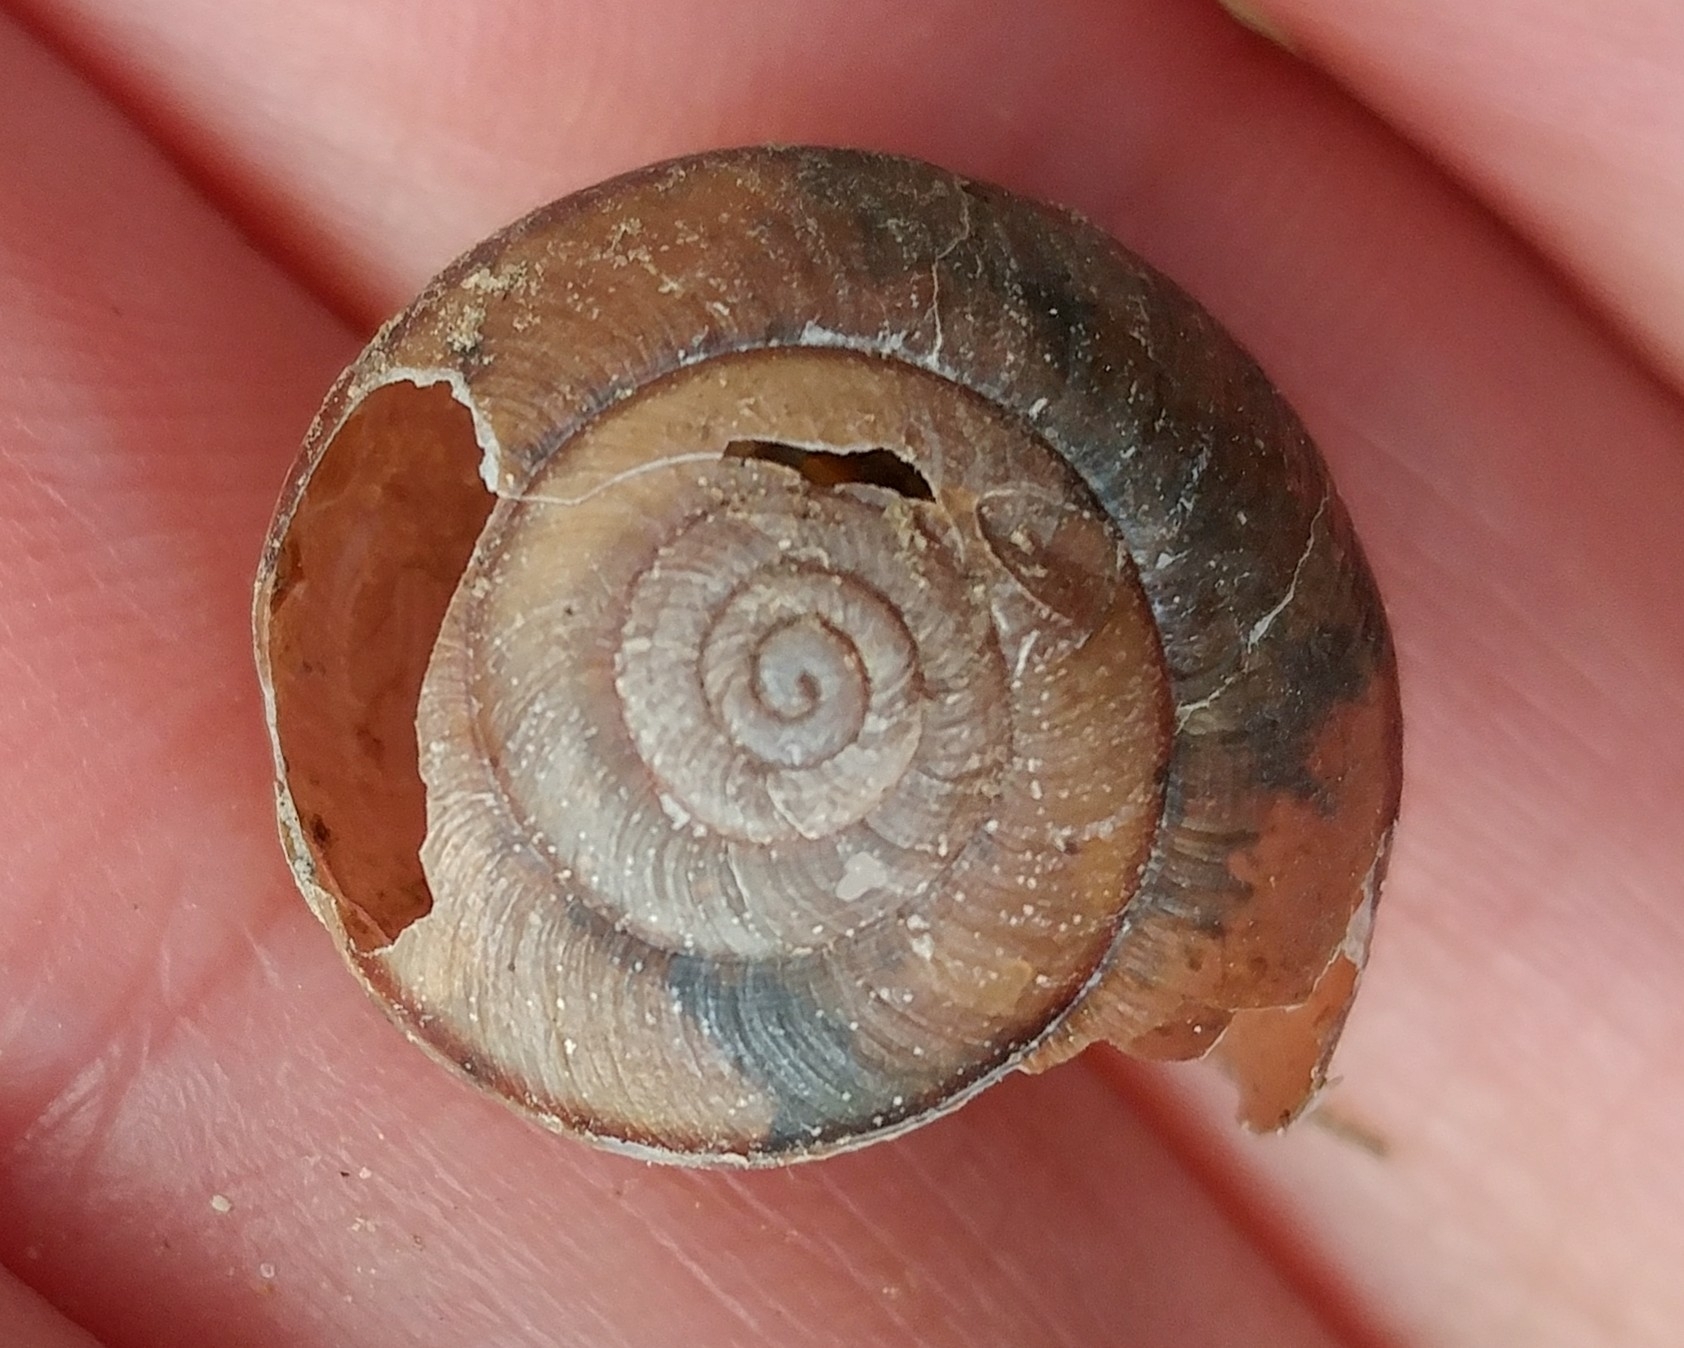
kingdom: Animalia
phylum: Mollusca
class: Gastropoda
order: Stylommatophora
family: Xanthonychidae
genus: Helminthoglypta
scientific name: Helminthoglypta phlyctaena
